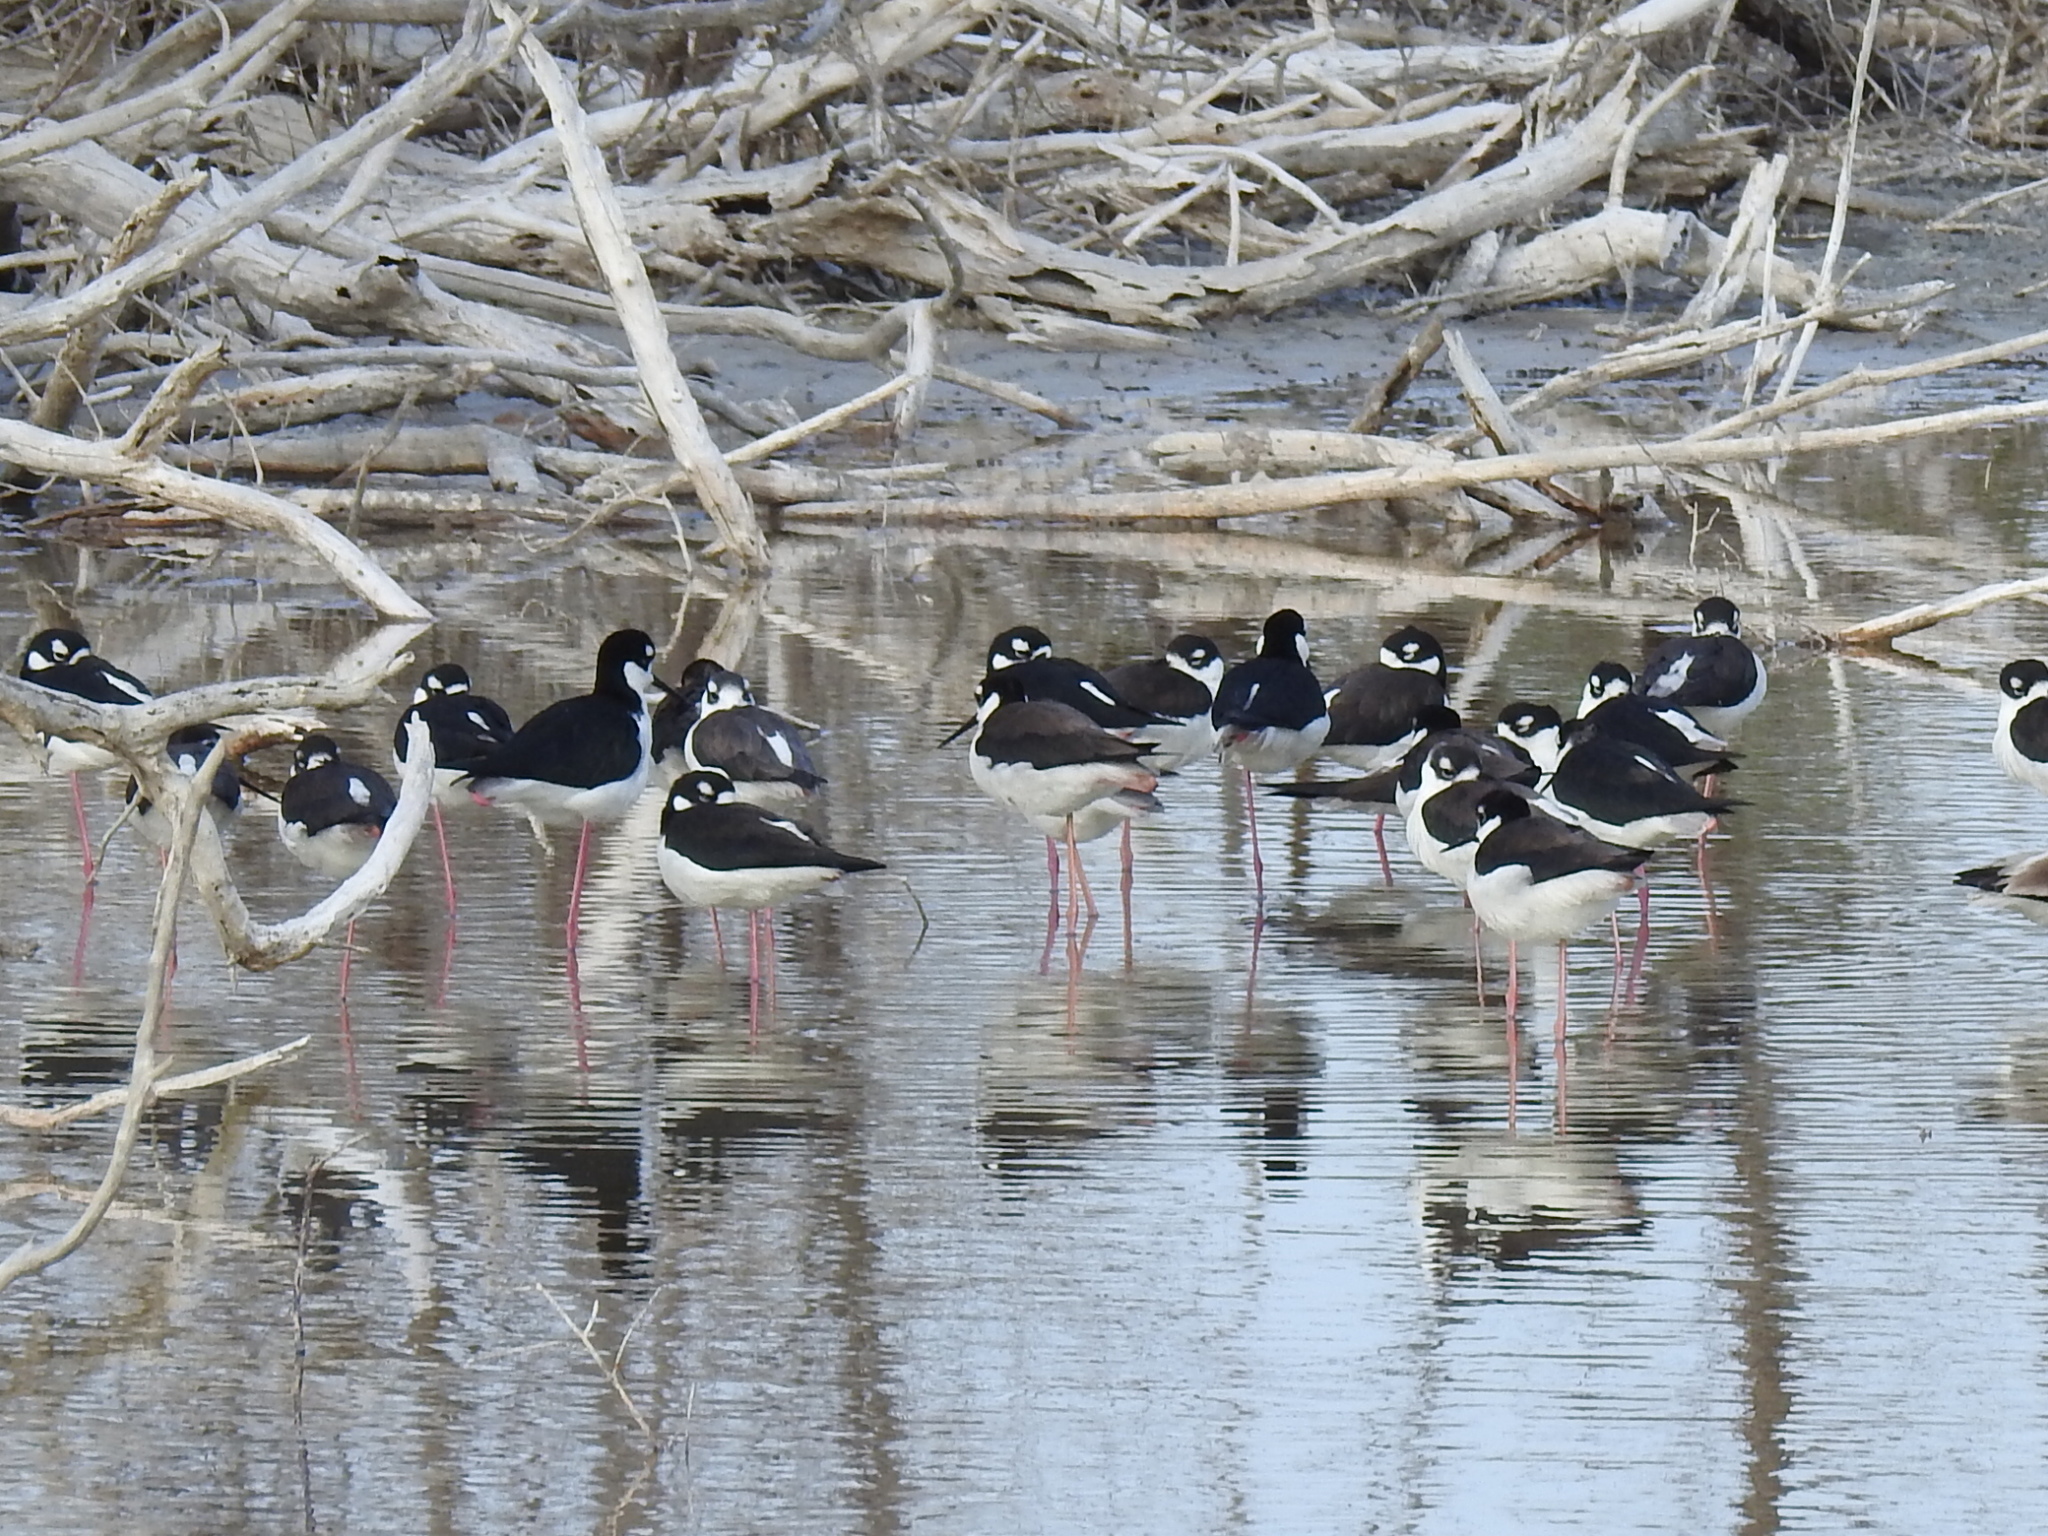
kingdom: Animalia
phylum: Chordata
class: Aves
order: Charadriiformes
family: Recurvirostridae
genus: Himantopus
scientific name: Himantopus mexicanus
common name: Black-necked stilt
